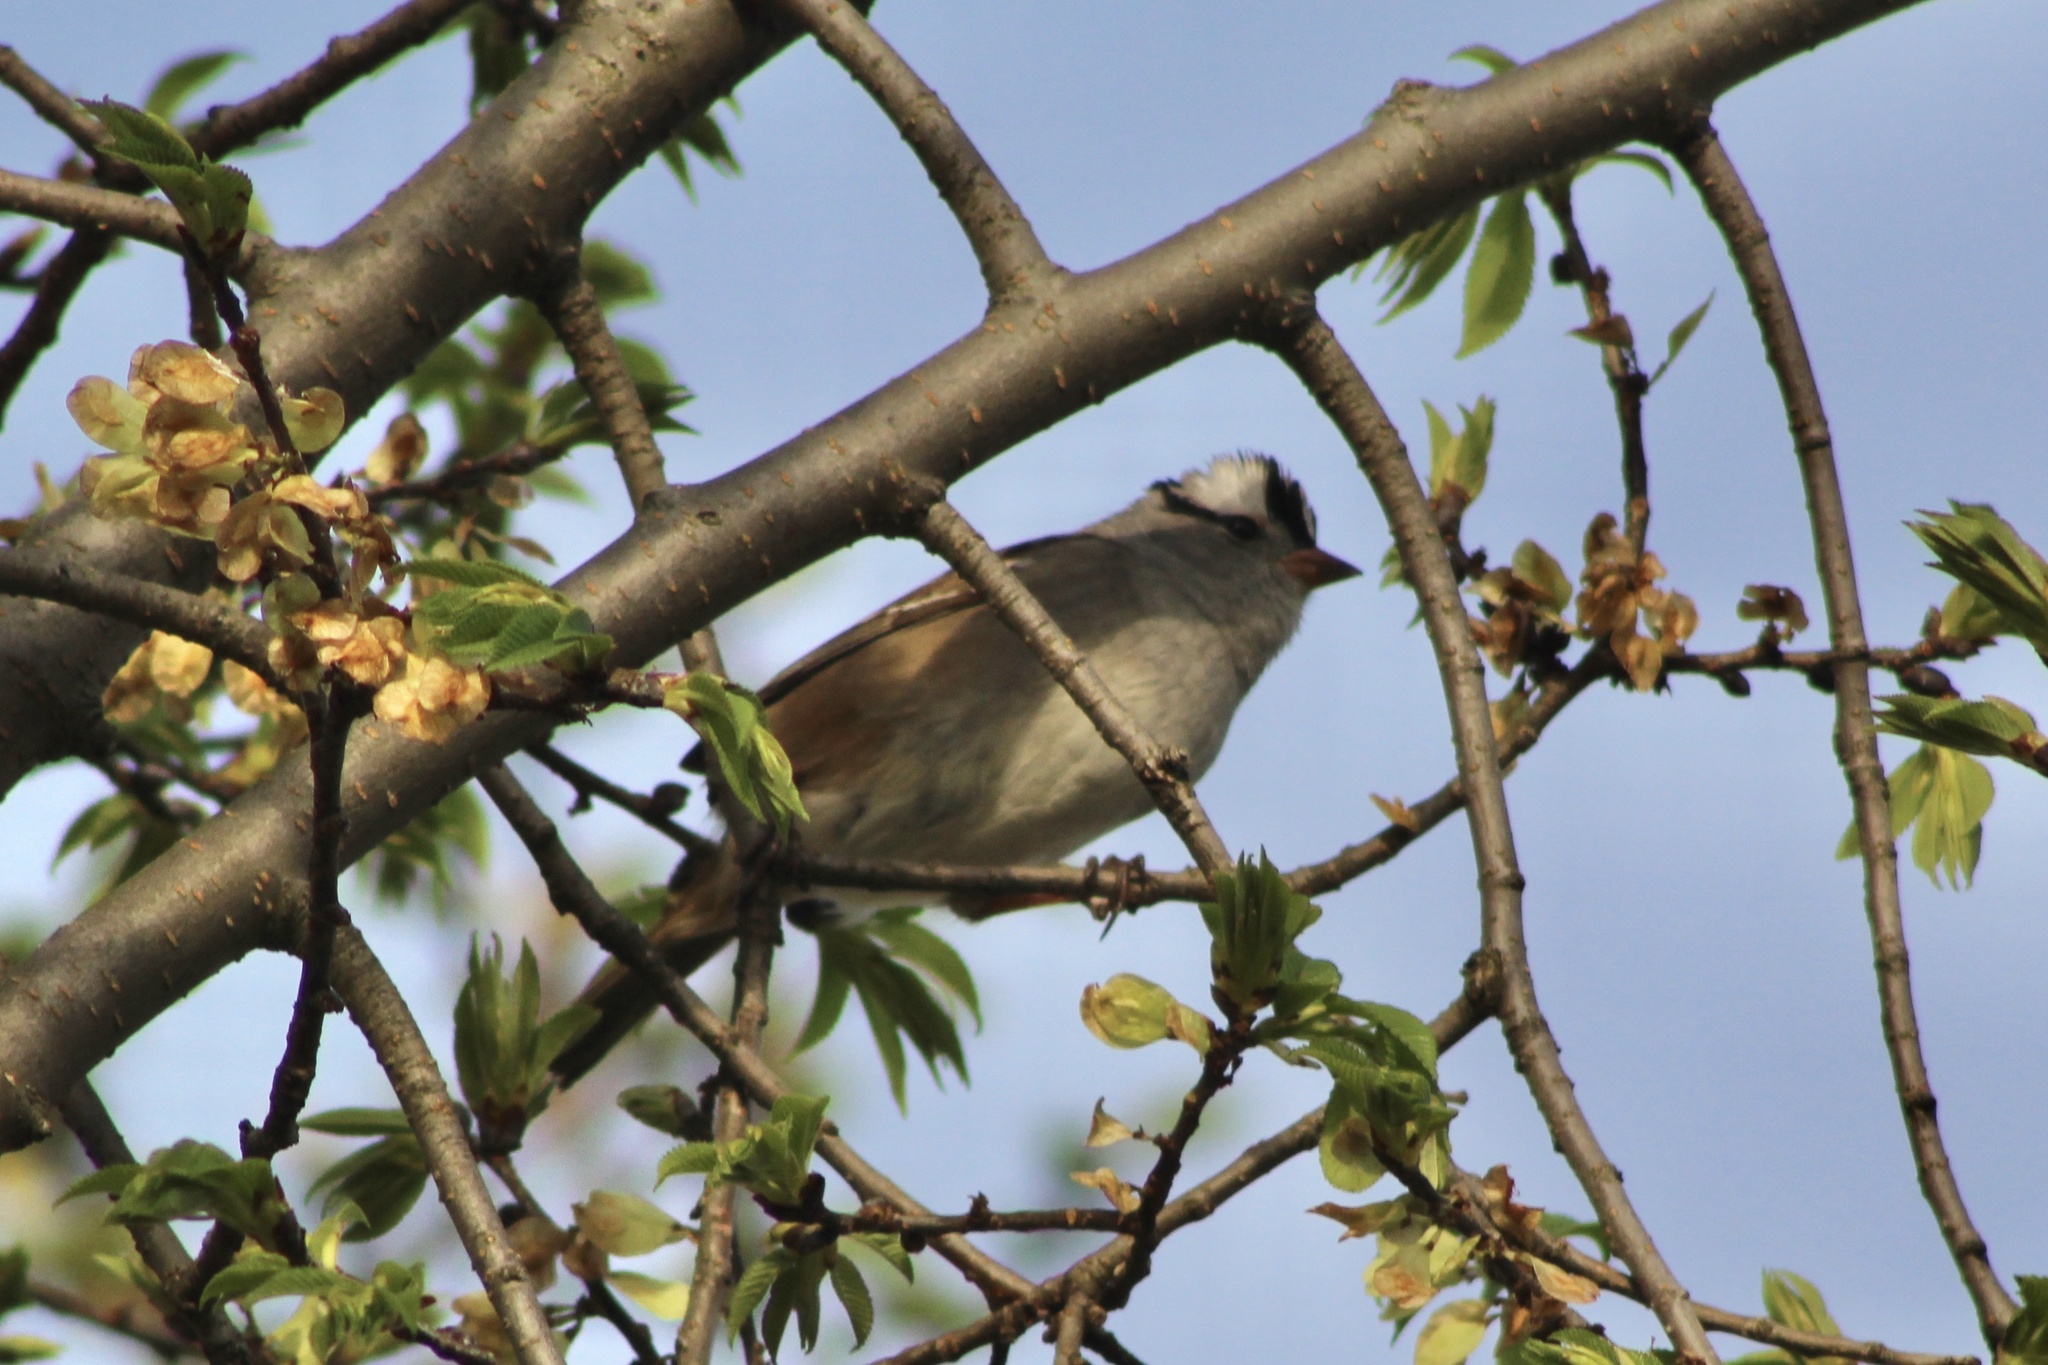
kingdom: Animalia
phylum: Chordata
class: Aves
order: Passeriformes
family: Passerellidae
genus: Zonotrichia
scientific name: Zonotrichia leucophrys
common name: White-crowned sparrow
